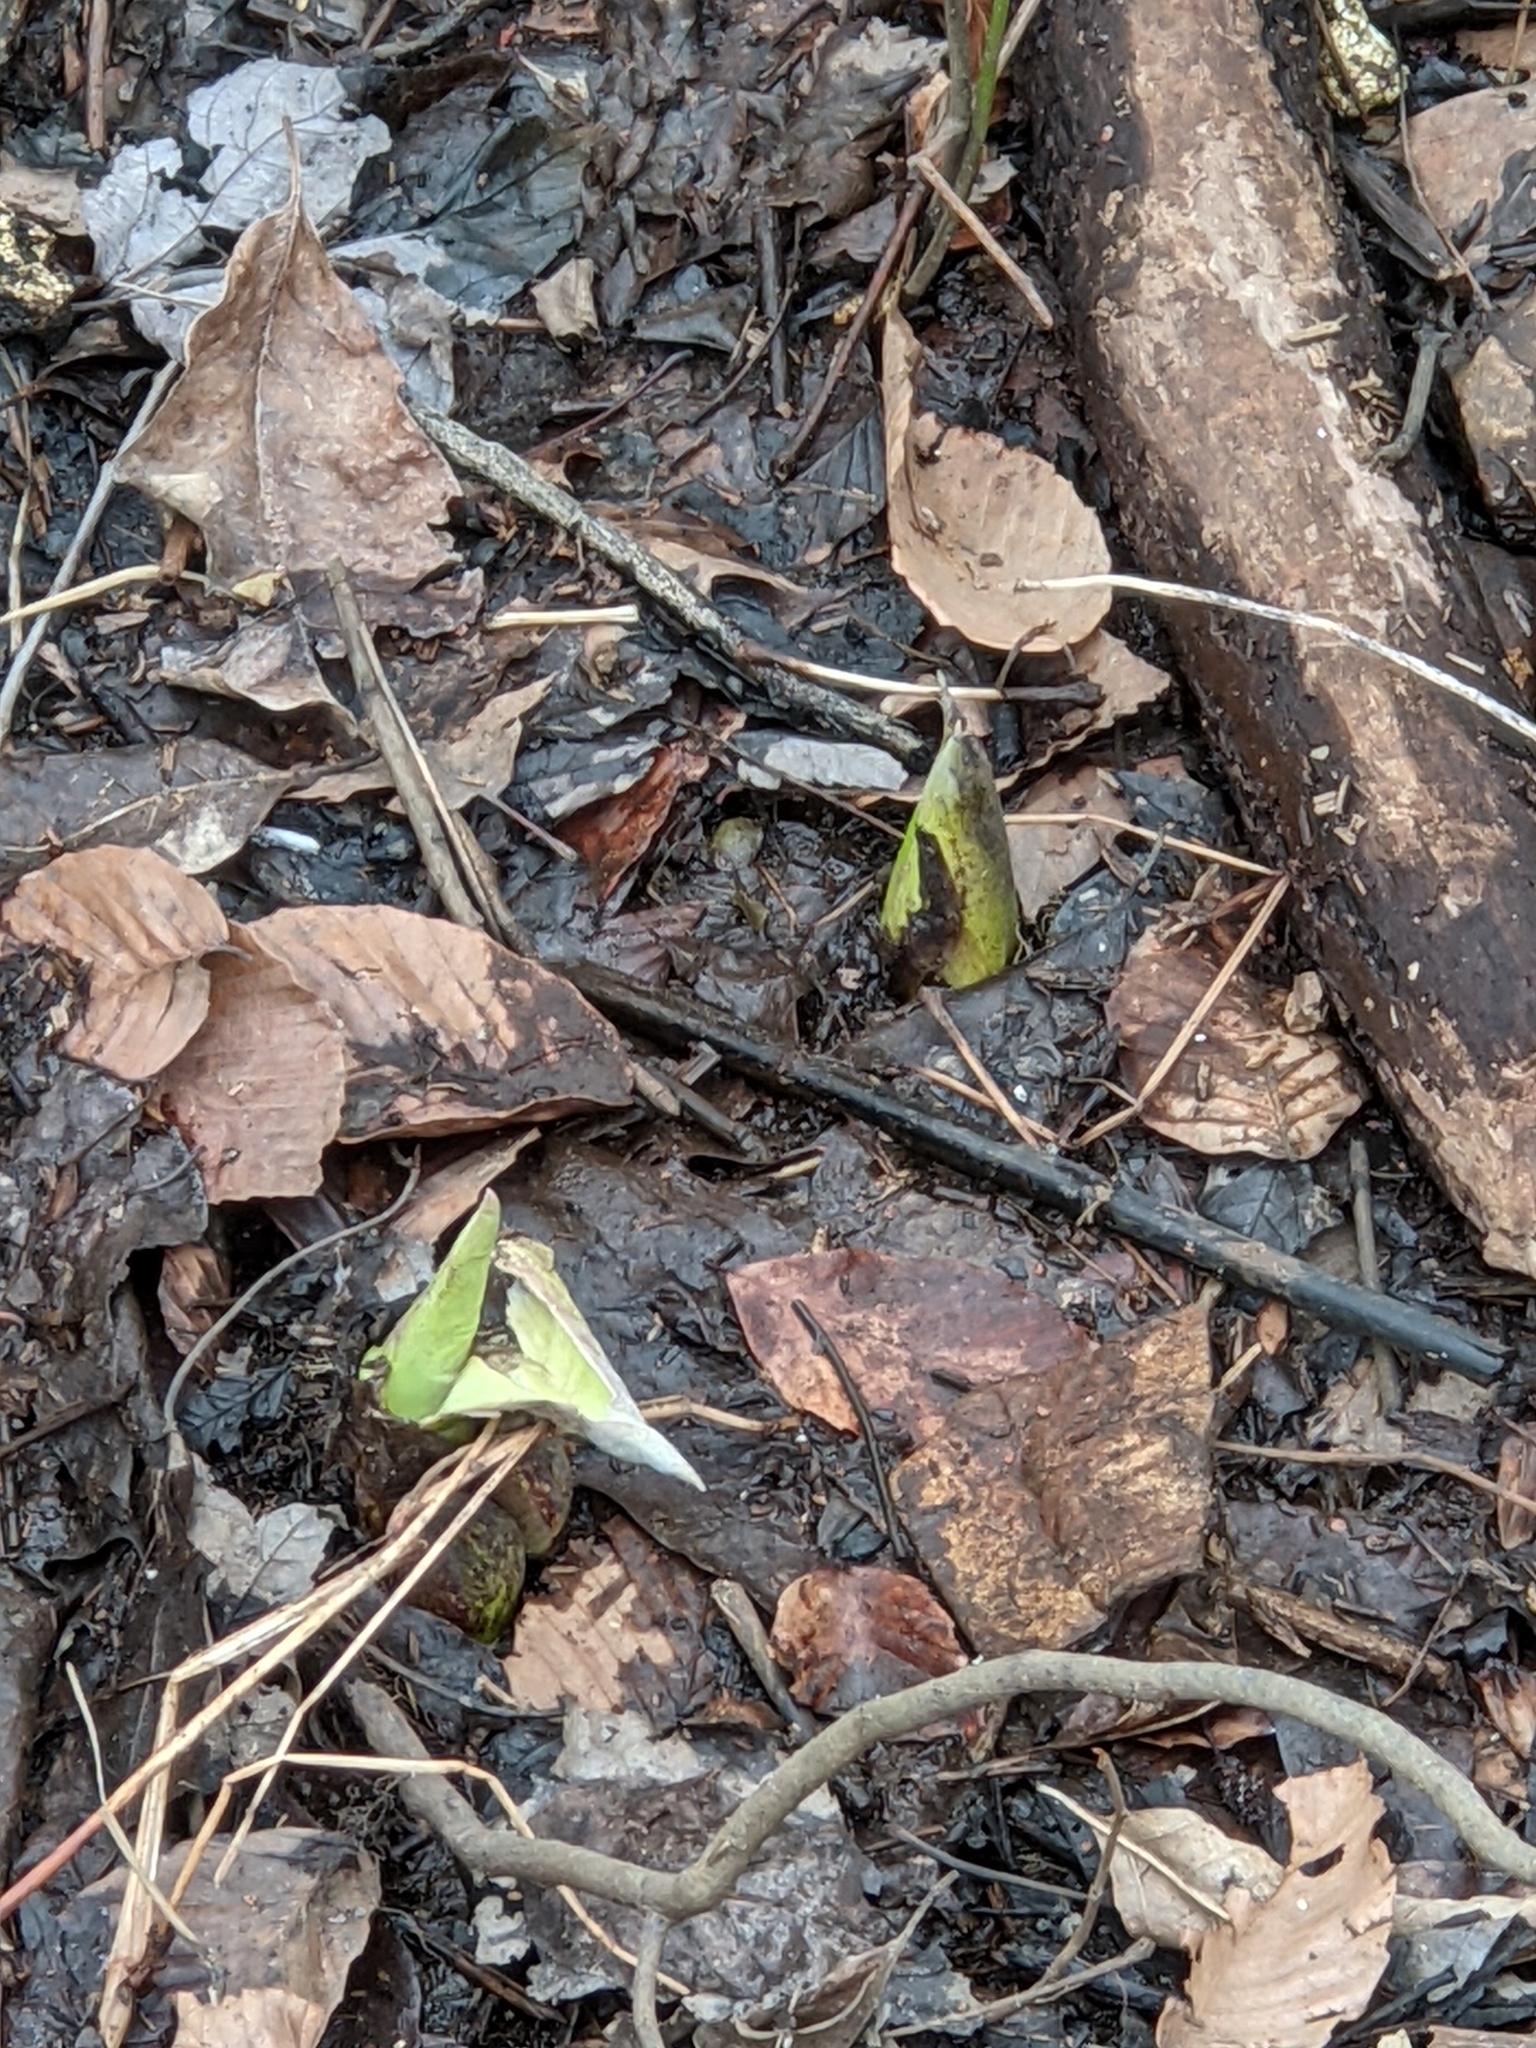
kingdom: Plantae
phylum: Tracheophyta
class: Liliopsida
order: Alismatales
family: Araceae
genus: Symplocarpus
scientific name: Symplocarpus foetidus
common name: Eastern skunk cabbage
